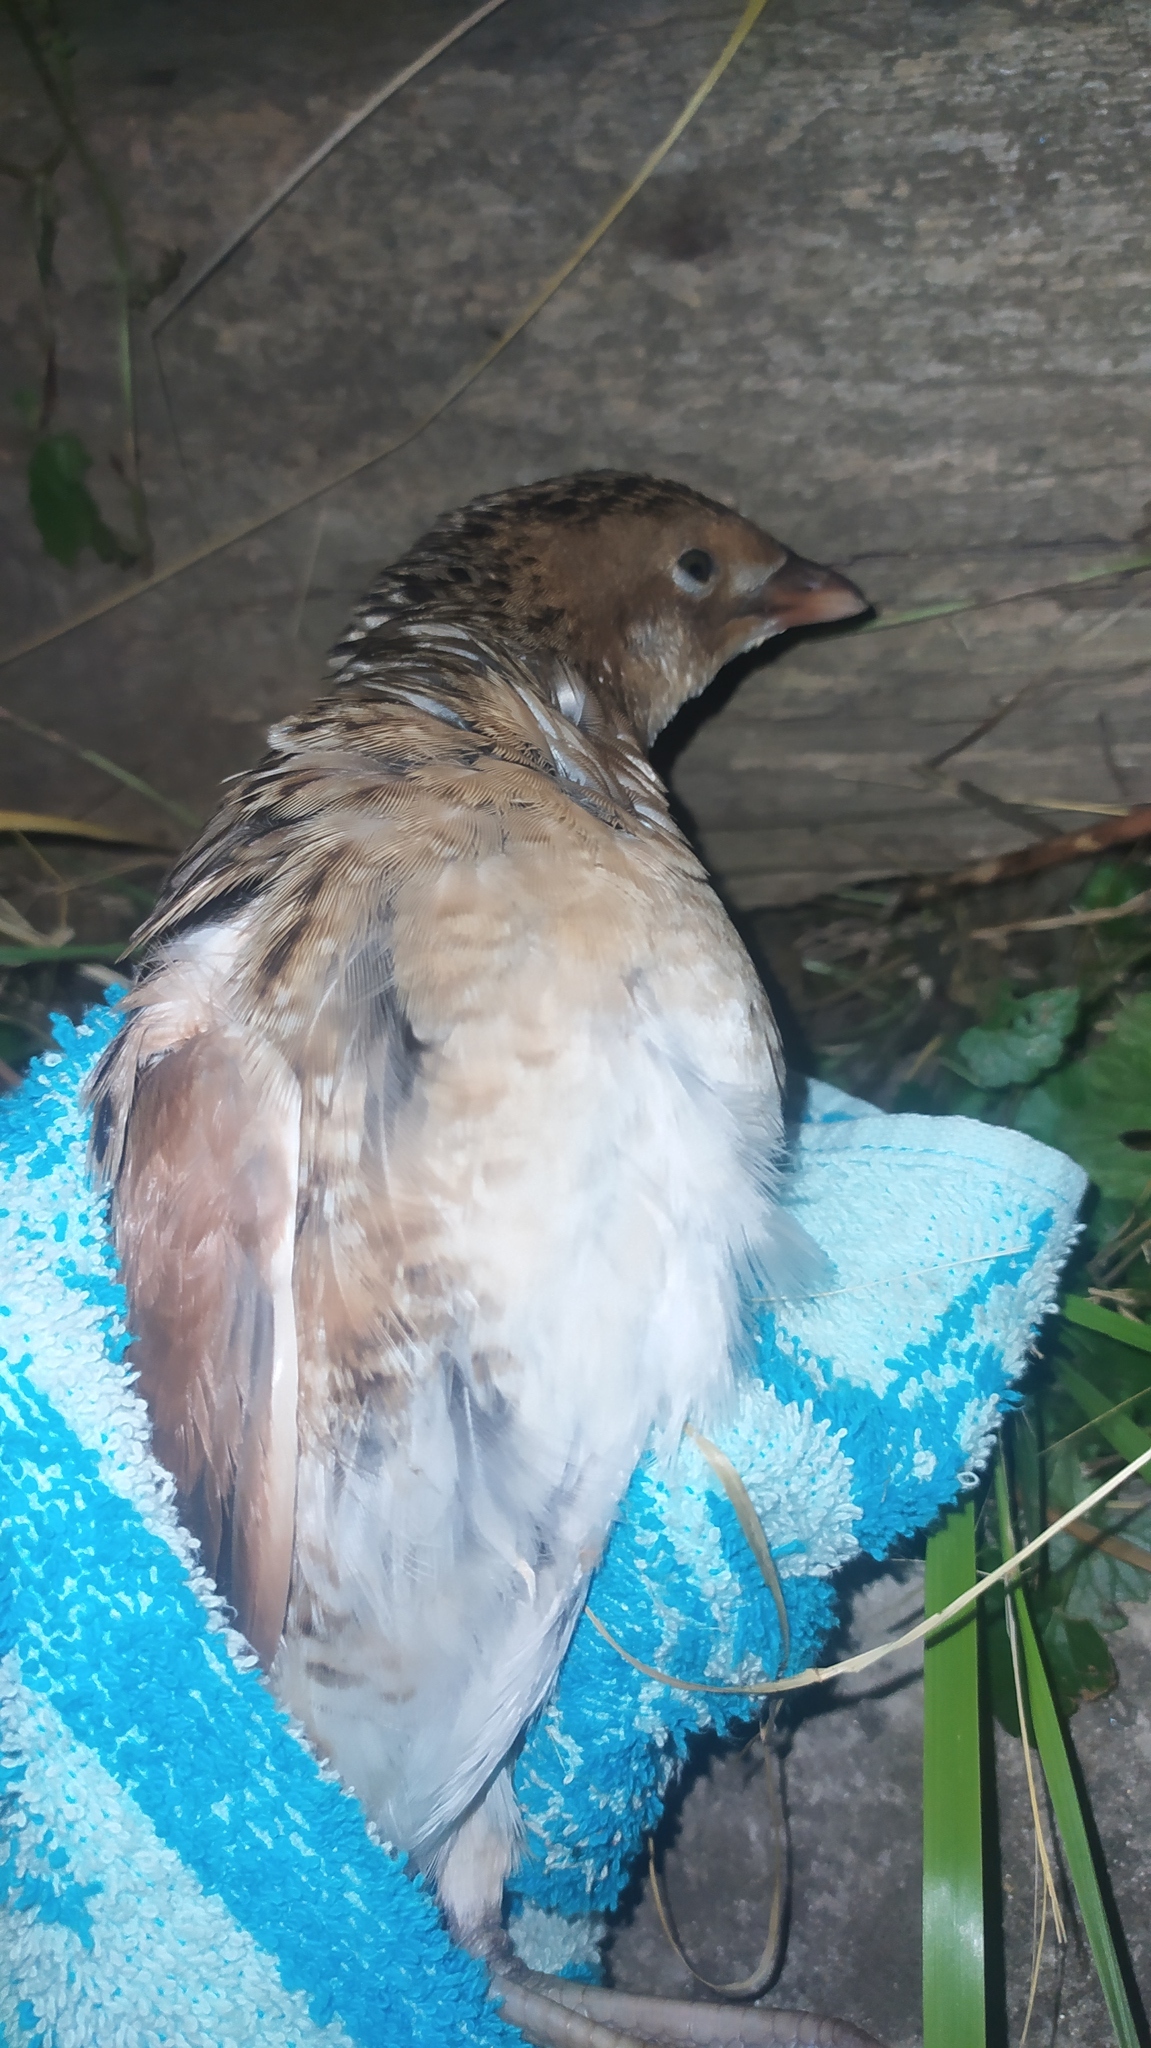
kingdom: Animalia
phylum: Chordata
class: Aves
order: Gruiformes
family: Rallidae
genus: Crex
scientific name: Crex crex
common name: Corn crake
